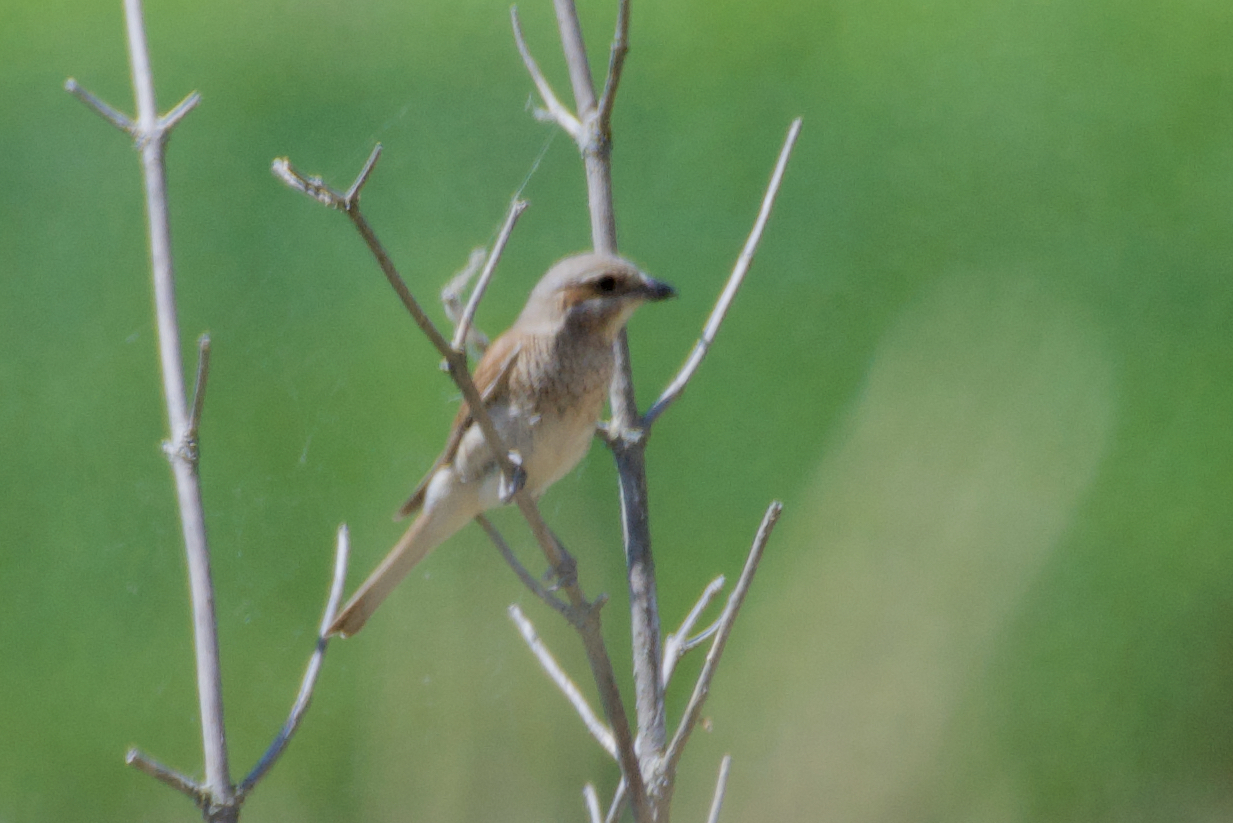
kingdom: Animalia
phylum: Chordata
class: Aves
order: Passeriformes
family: Laniidae
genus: Lanius
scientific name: Lanius collurio
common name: Red-backed shrike
